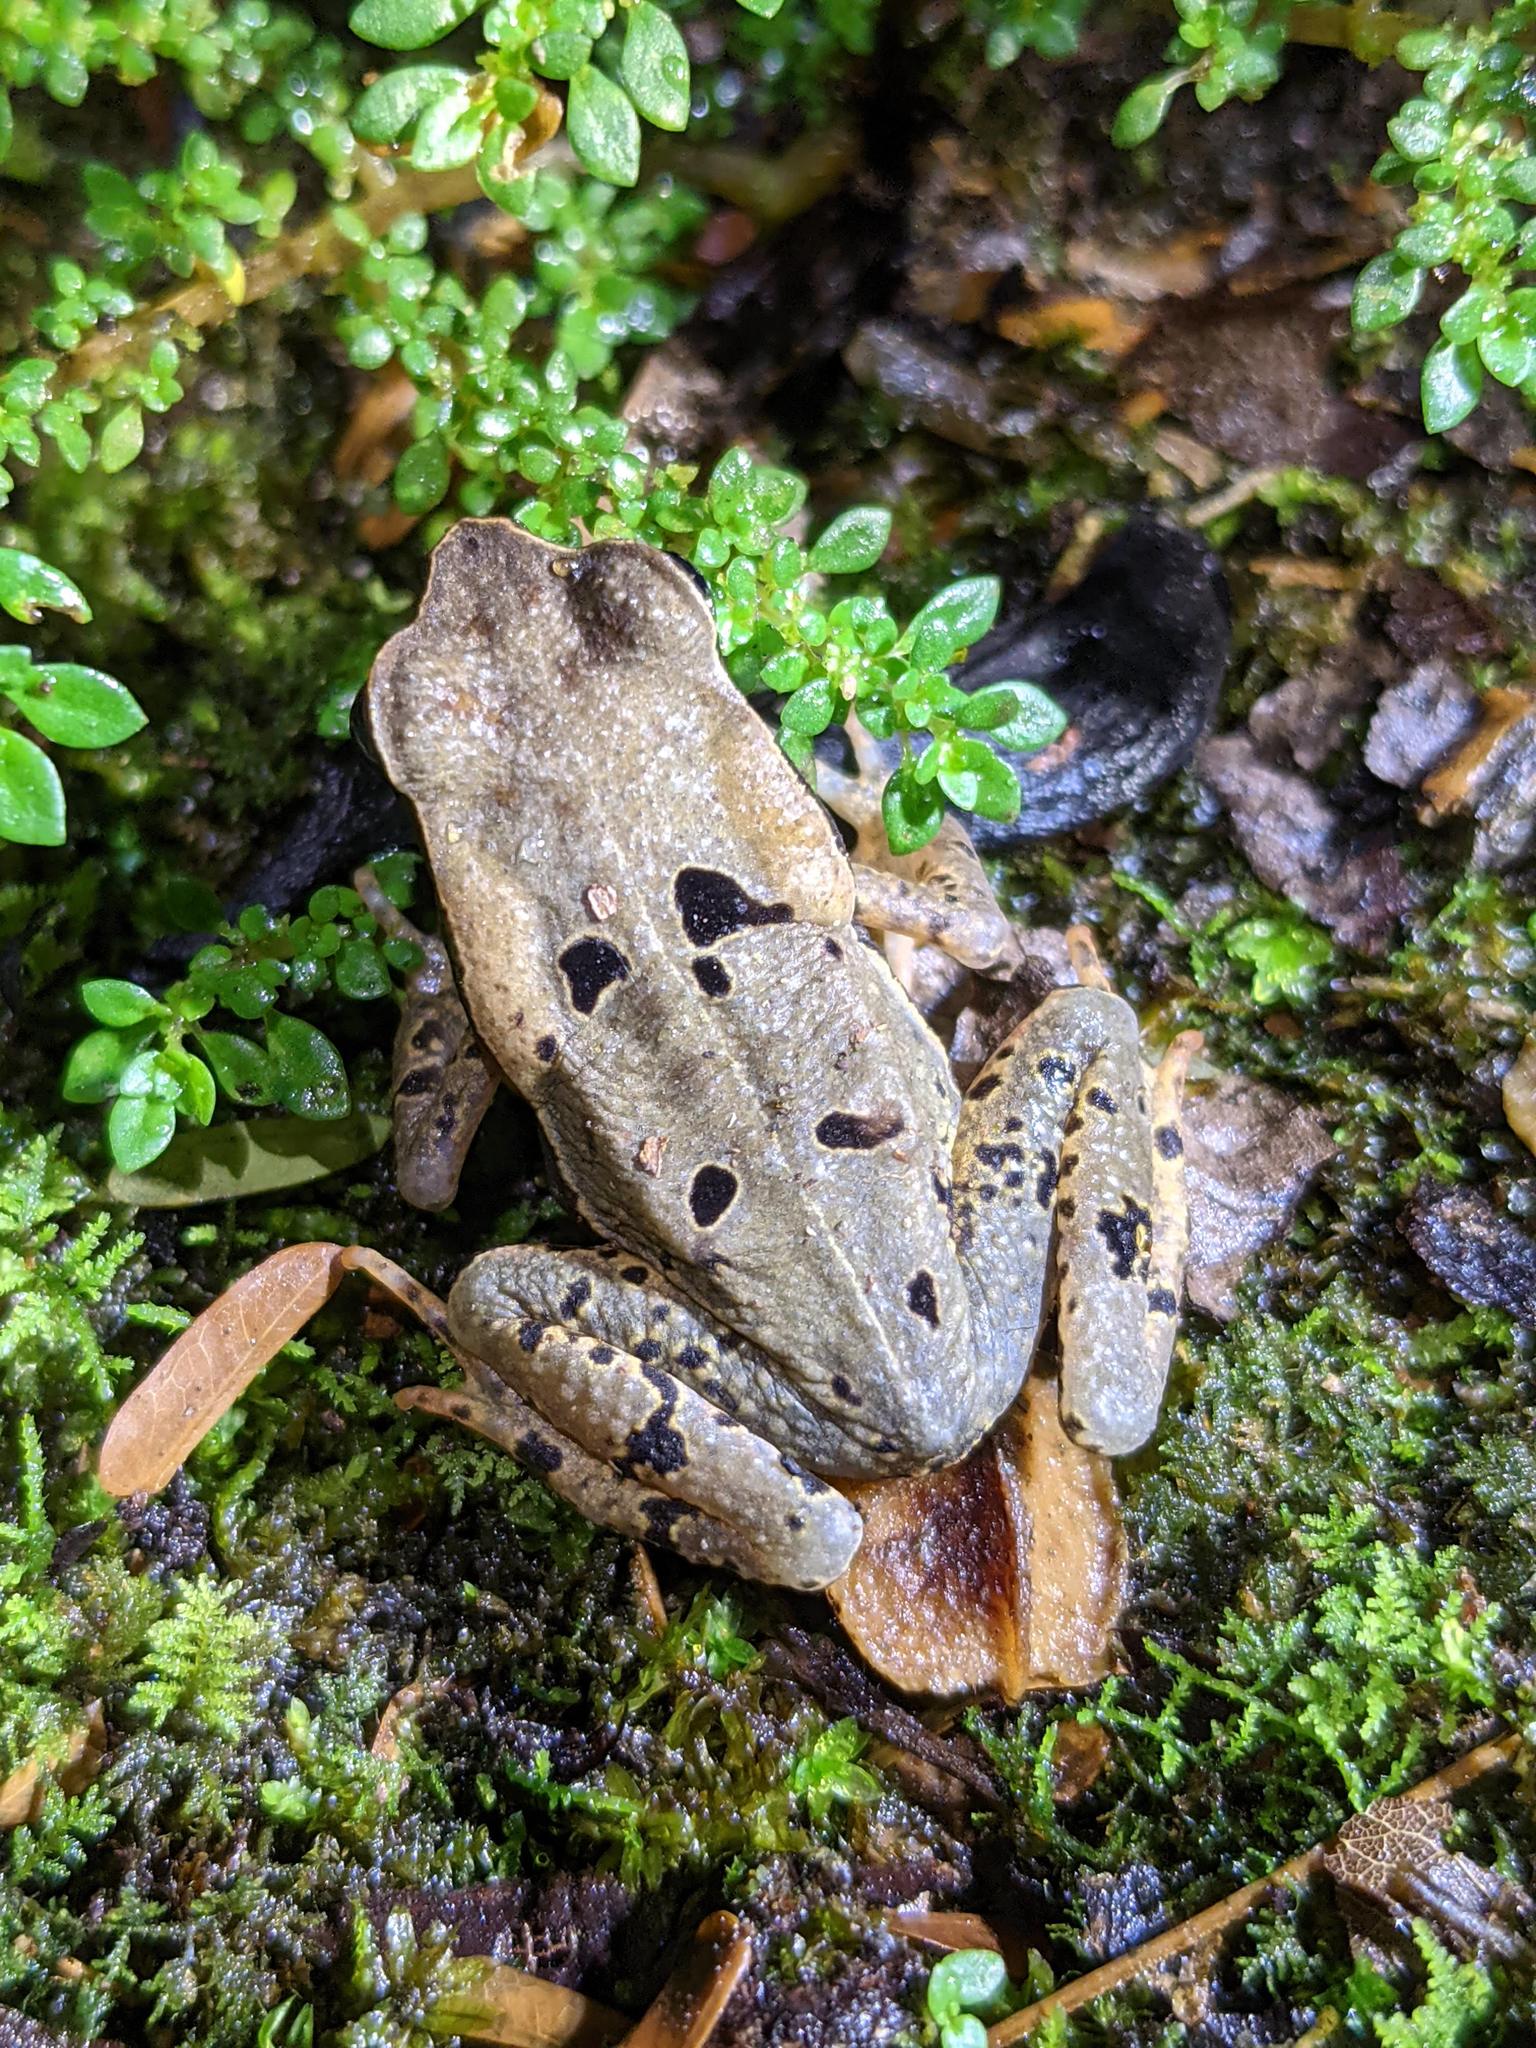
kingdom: Animalia
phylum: Chordata
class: Amphibia
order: Anura
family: Bufonidae
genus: Rhaebo
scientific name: Rhaebo haematiticus
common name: Truando toad
